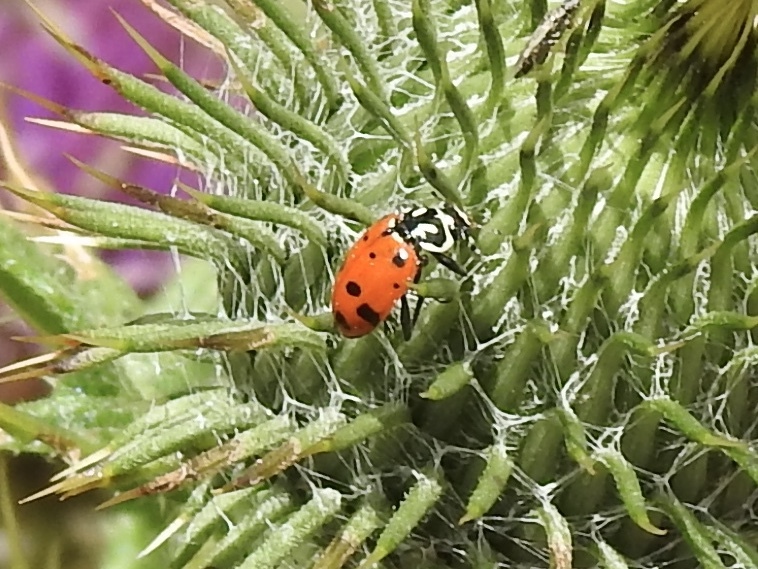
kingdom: Animalia
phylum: Arthropoda
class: Insecta
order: Coleoptera
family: Coccinellidae
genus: Hippodamia
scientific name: Hippodamia convergens
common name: Convergent lady beetle
